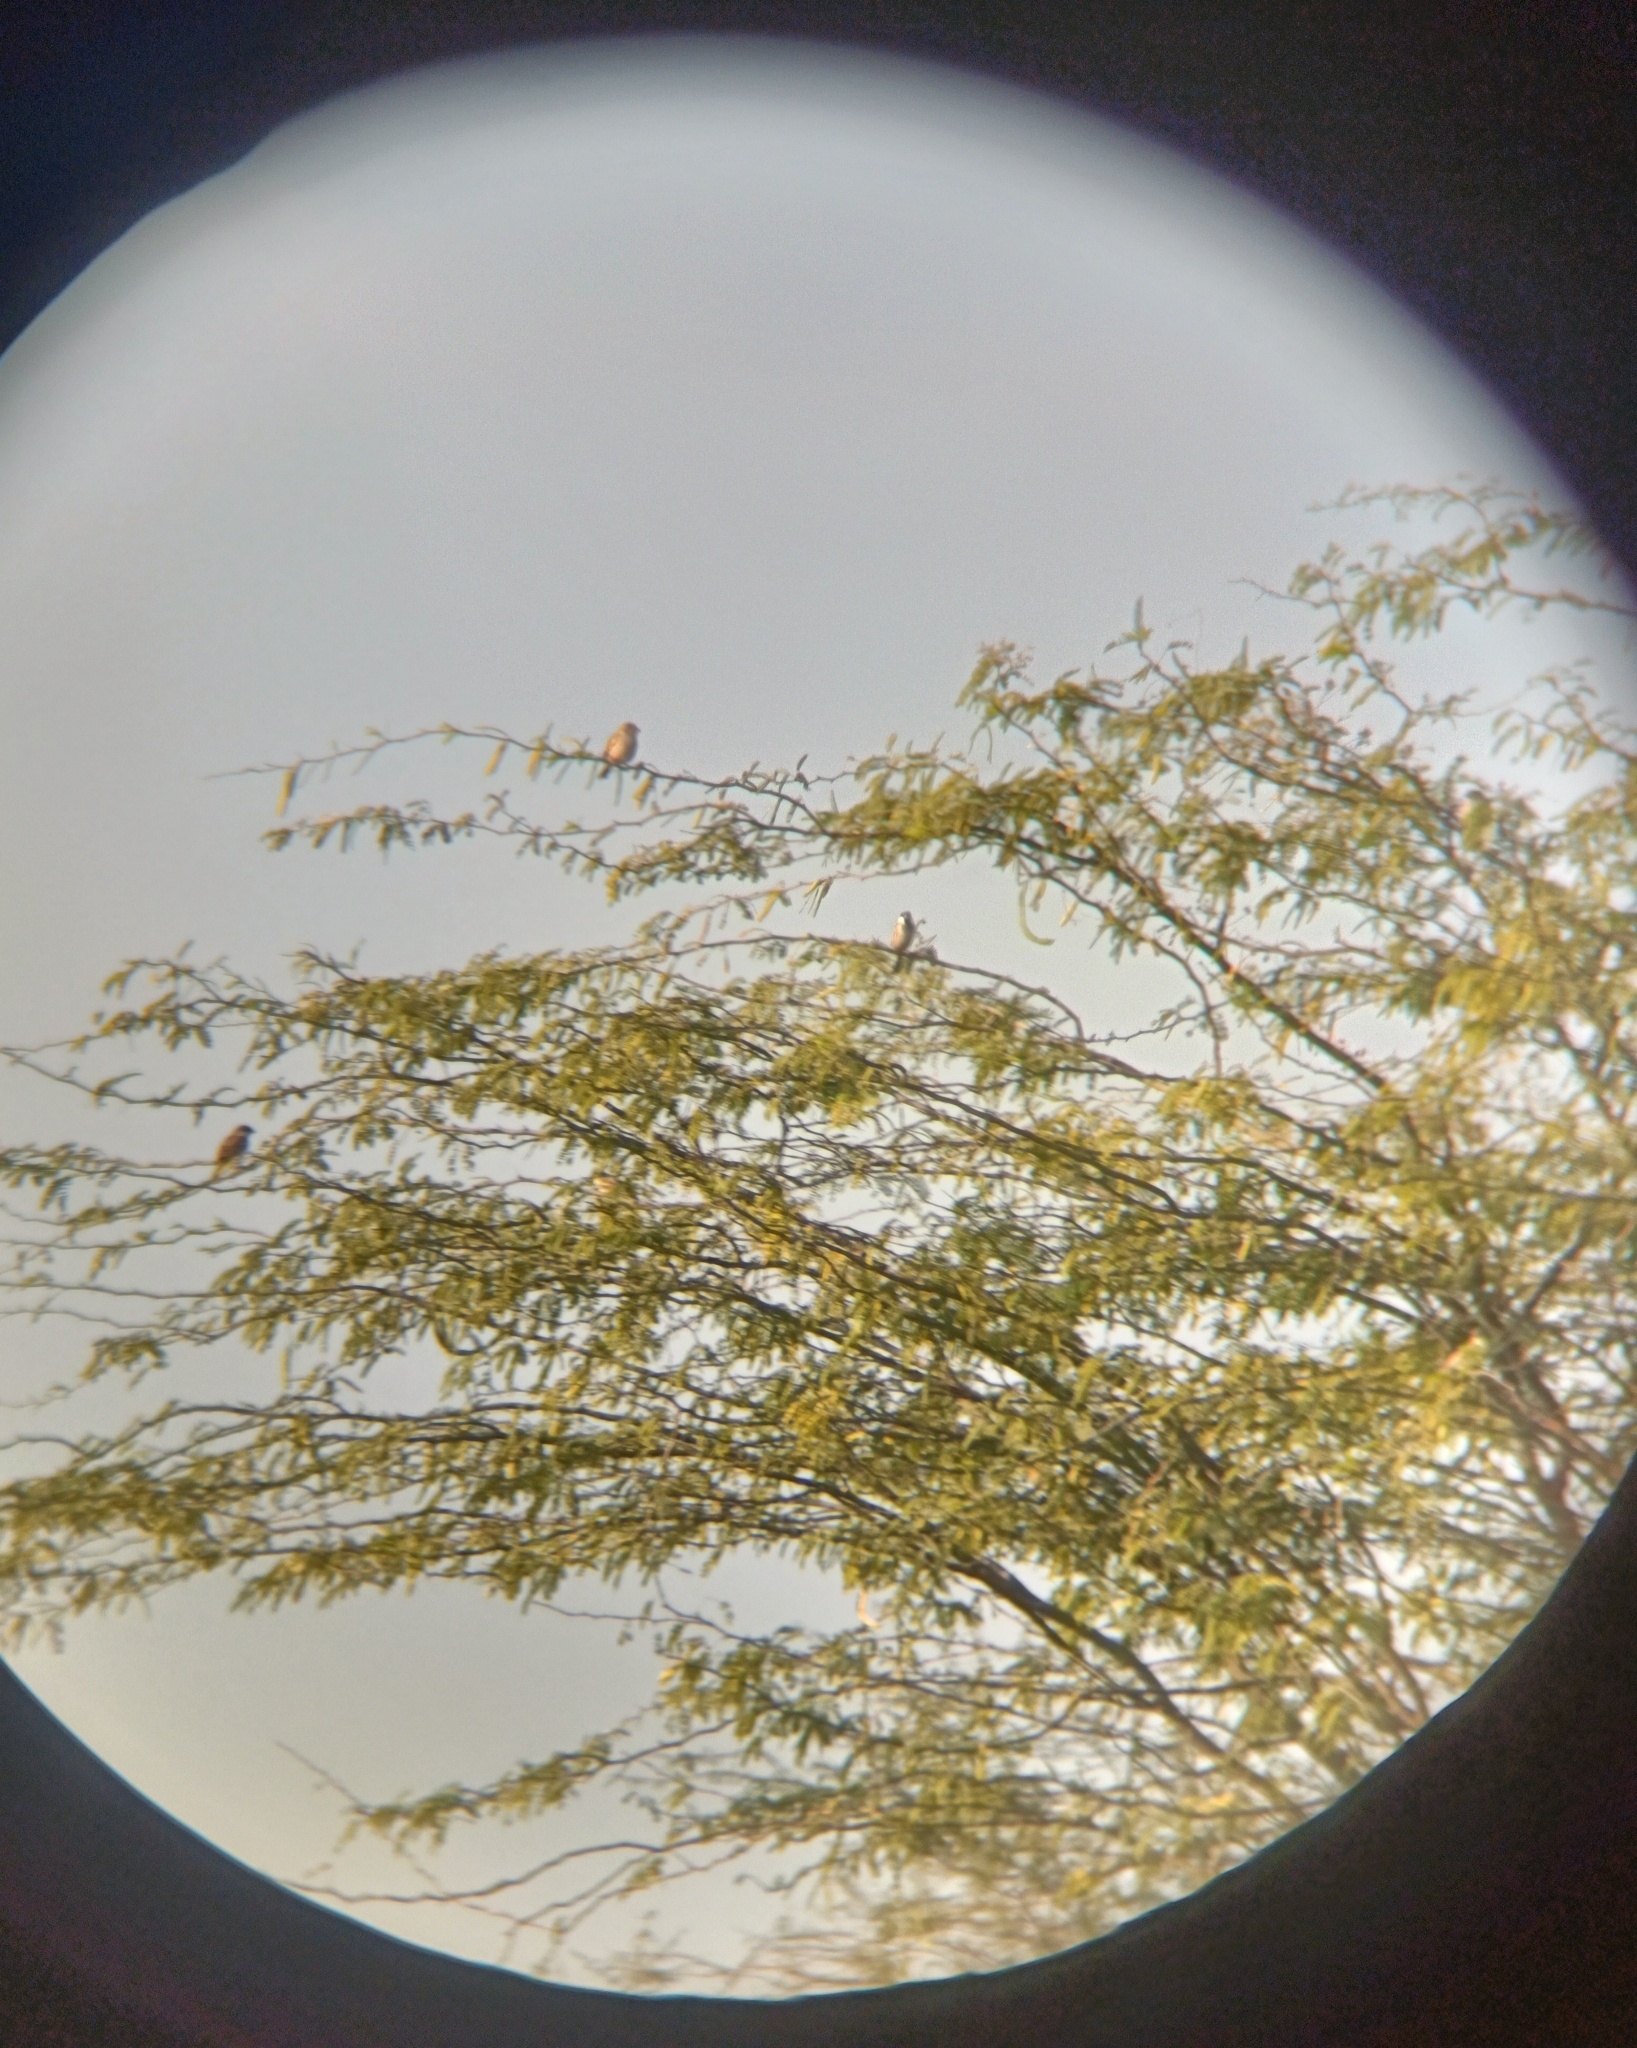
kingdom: Animalia
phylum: Chordata
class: Aves
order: Passeriformes
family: Passeridae
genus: Passer
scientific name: Passer domesticus
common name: House sparrow
